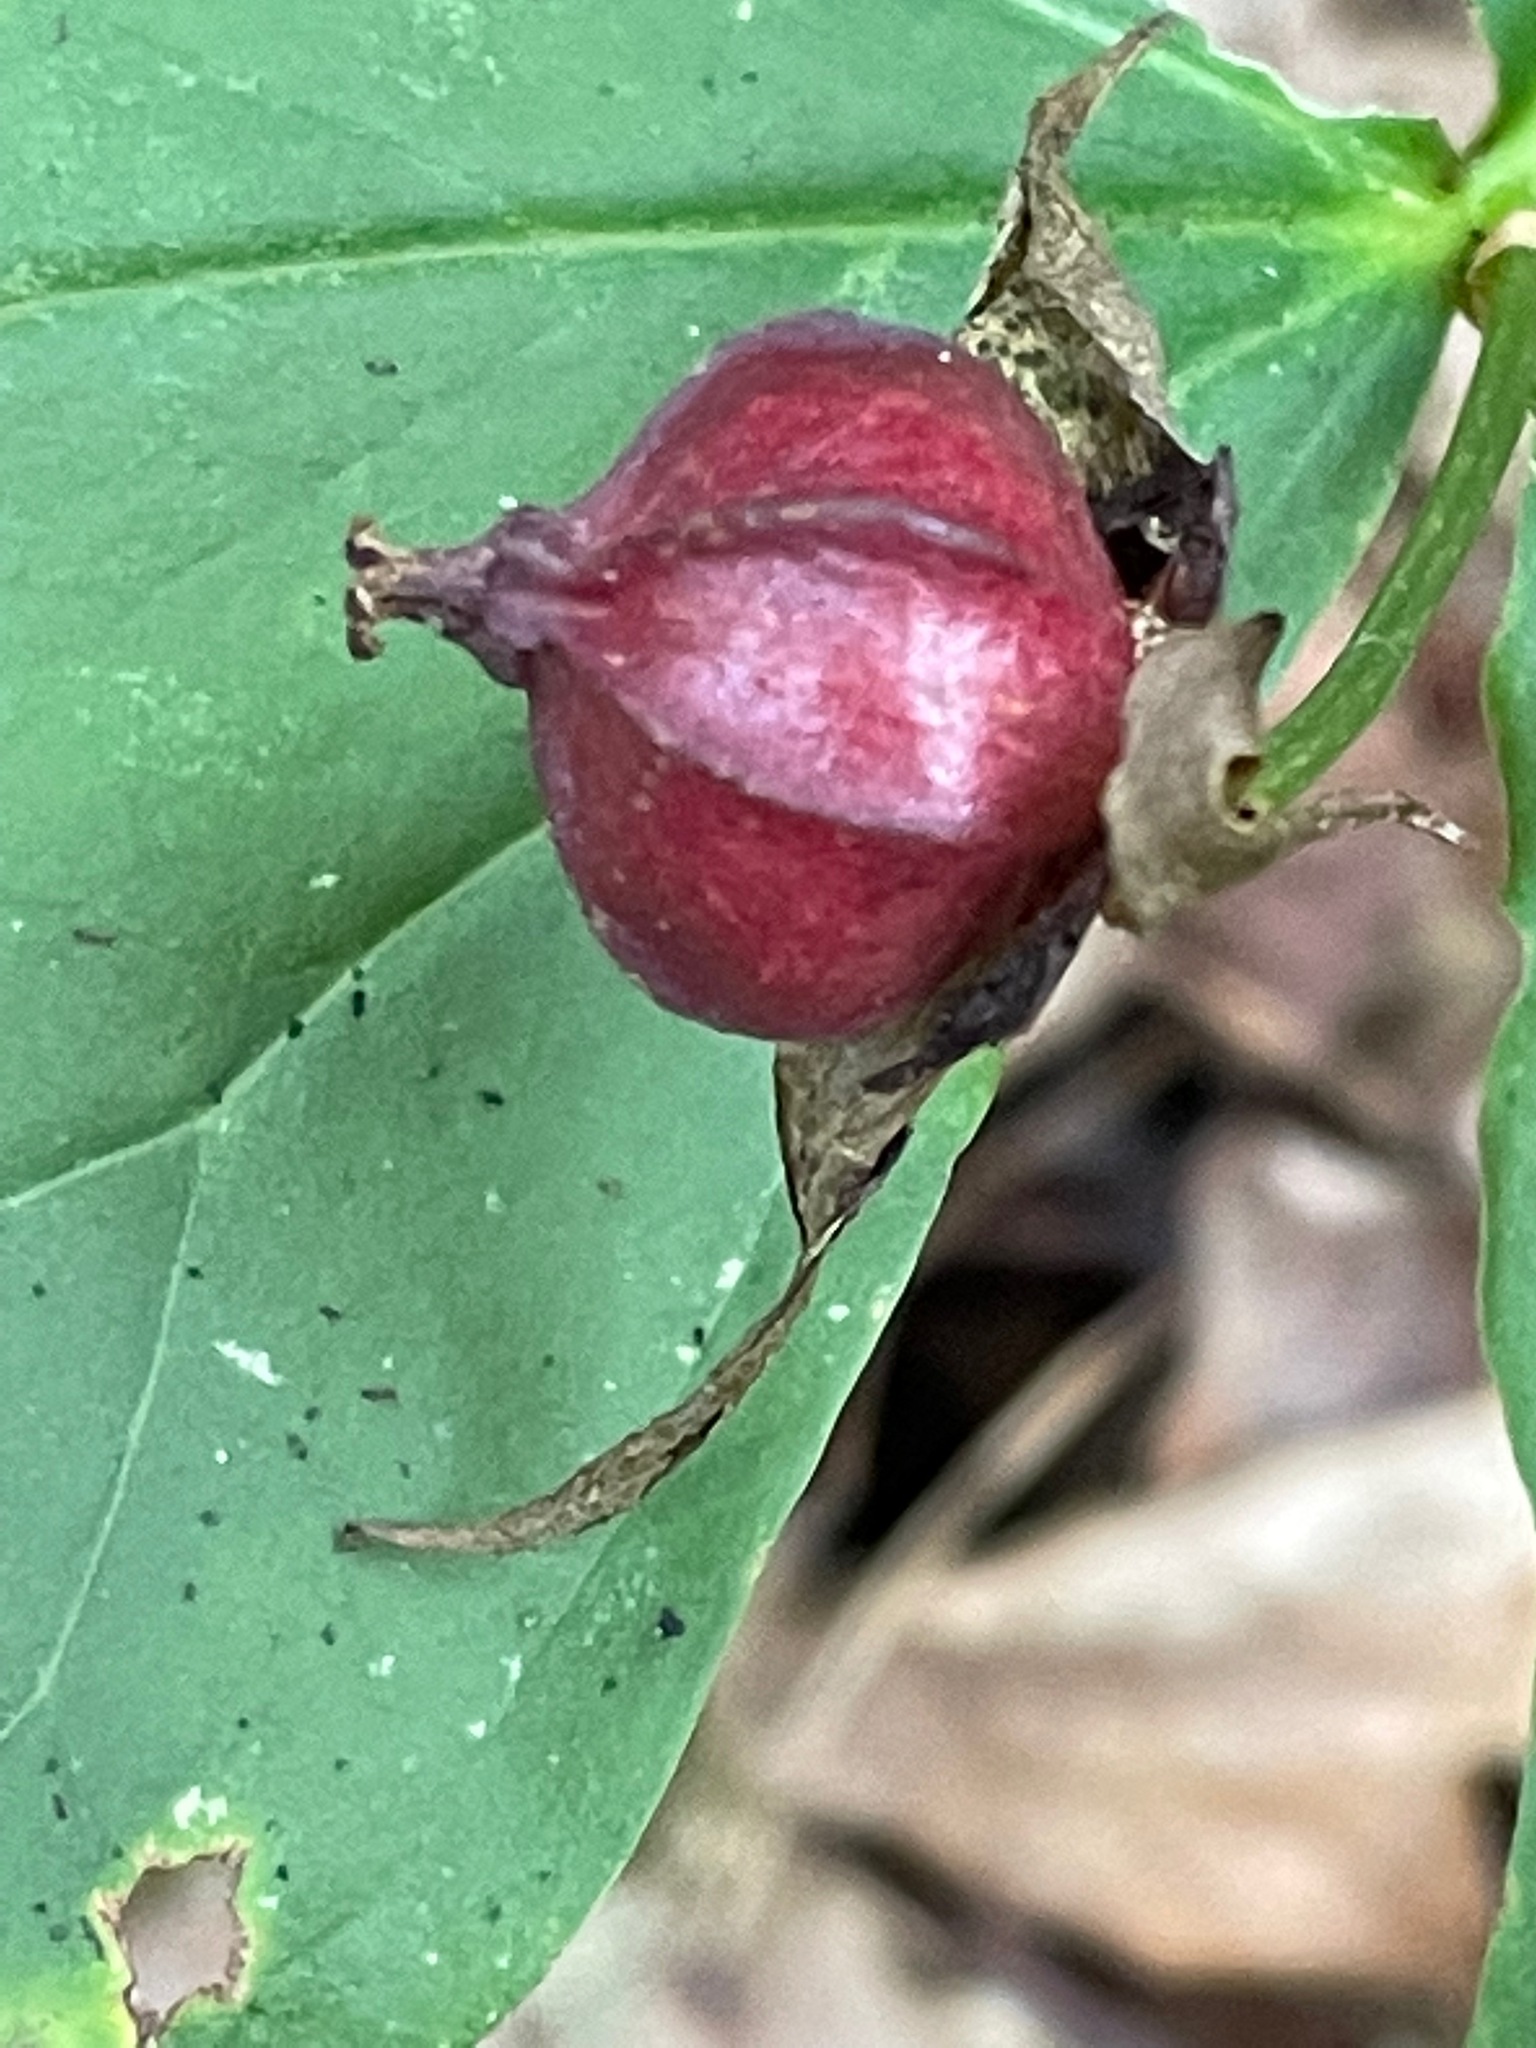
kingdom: Plantae
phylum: Tracheophyta
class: Liliopsida
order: Liliales
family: Melanthiaceae
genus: Trillium
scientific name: Trillium erectum
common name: Purple trillium
